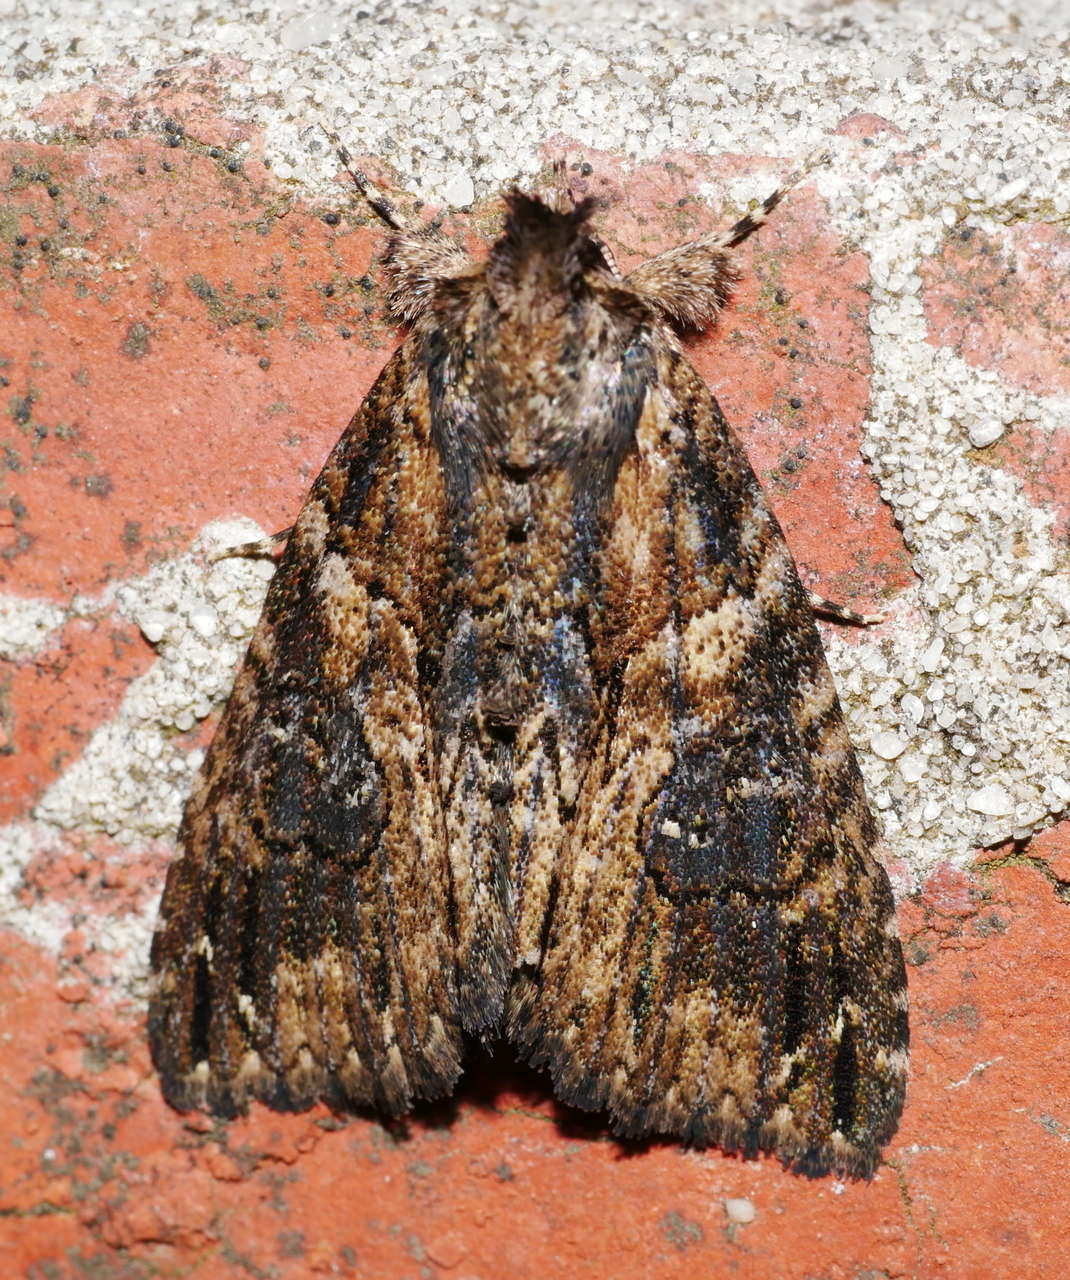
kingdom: Animalia
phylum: Arthropoda
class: Insecta
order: Lepidoptera
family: Erebidae
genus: Crioa
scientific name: Crioa hades
